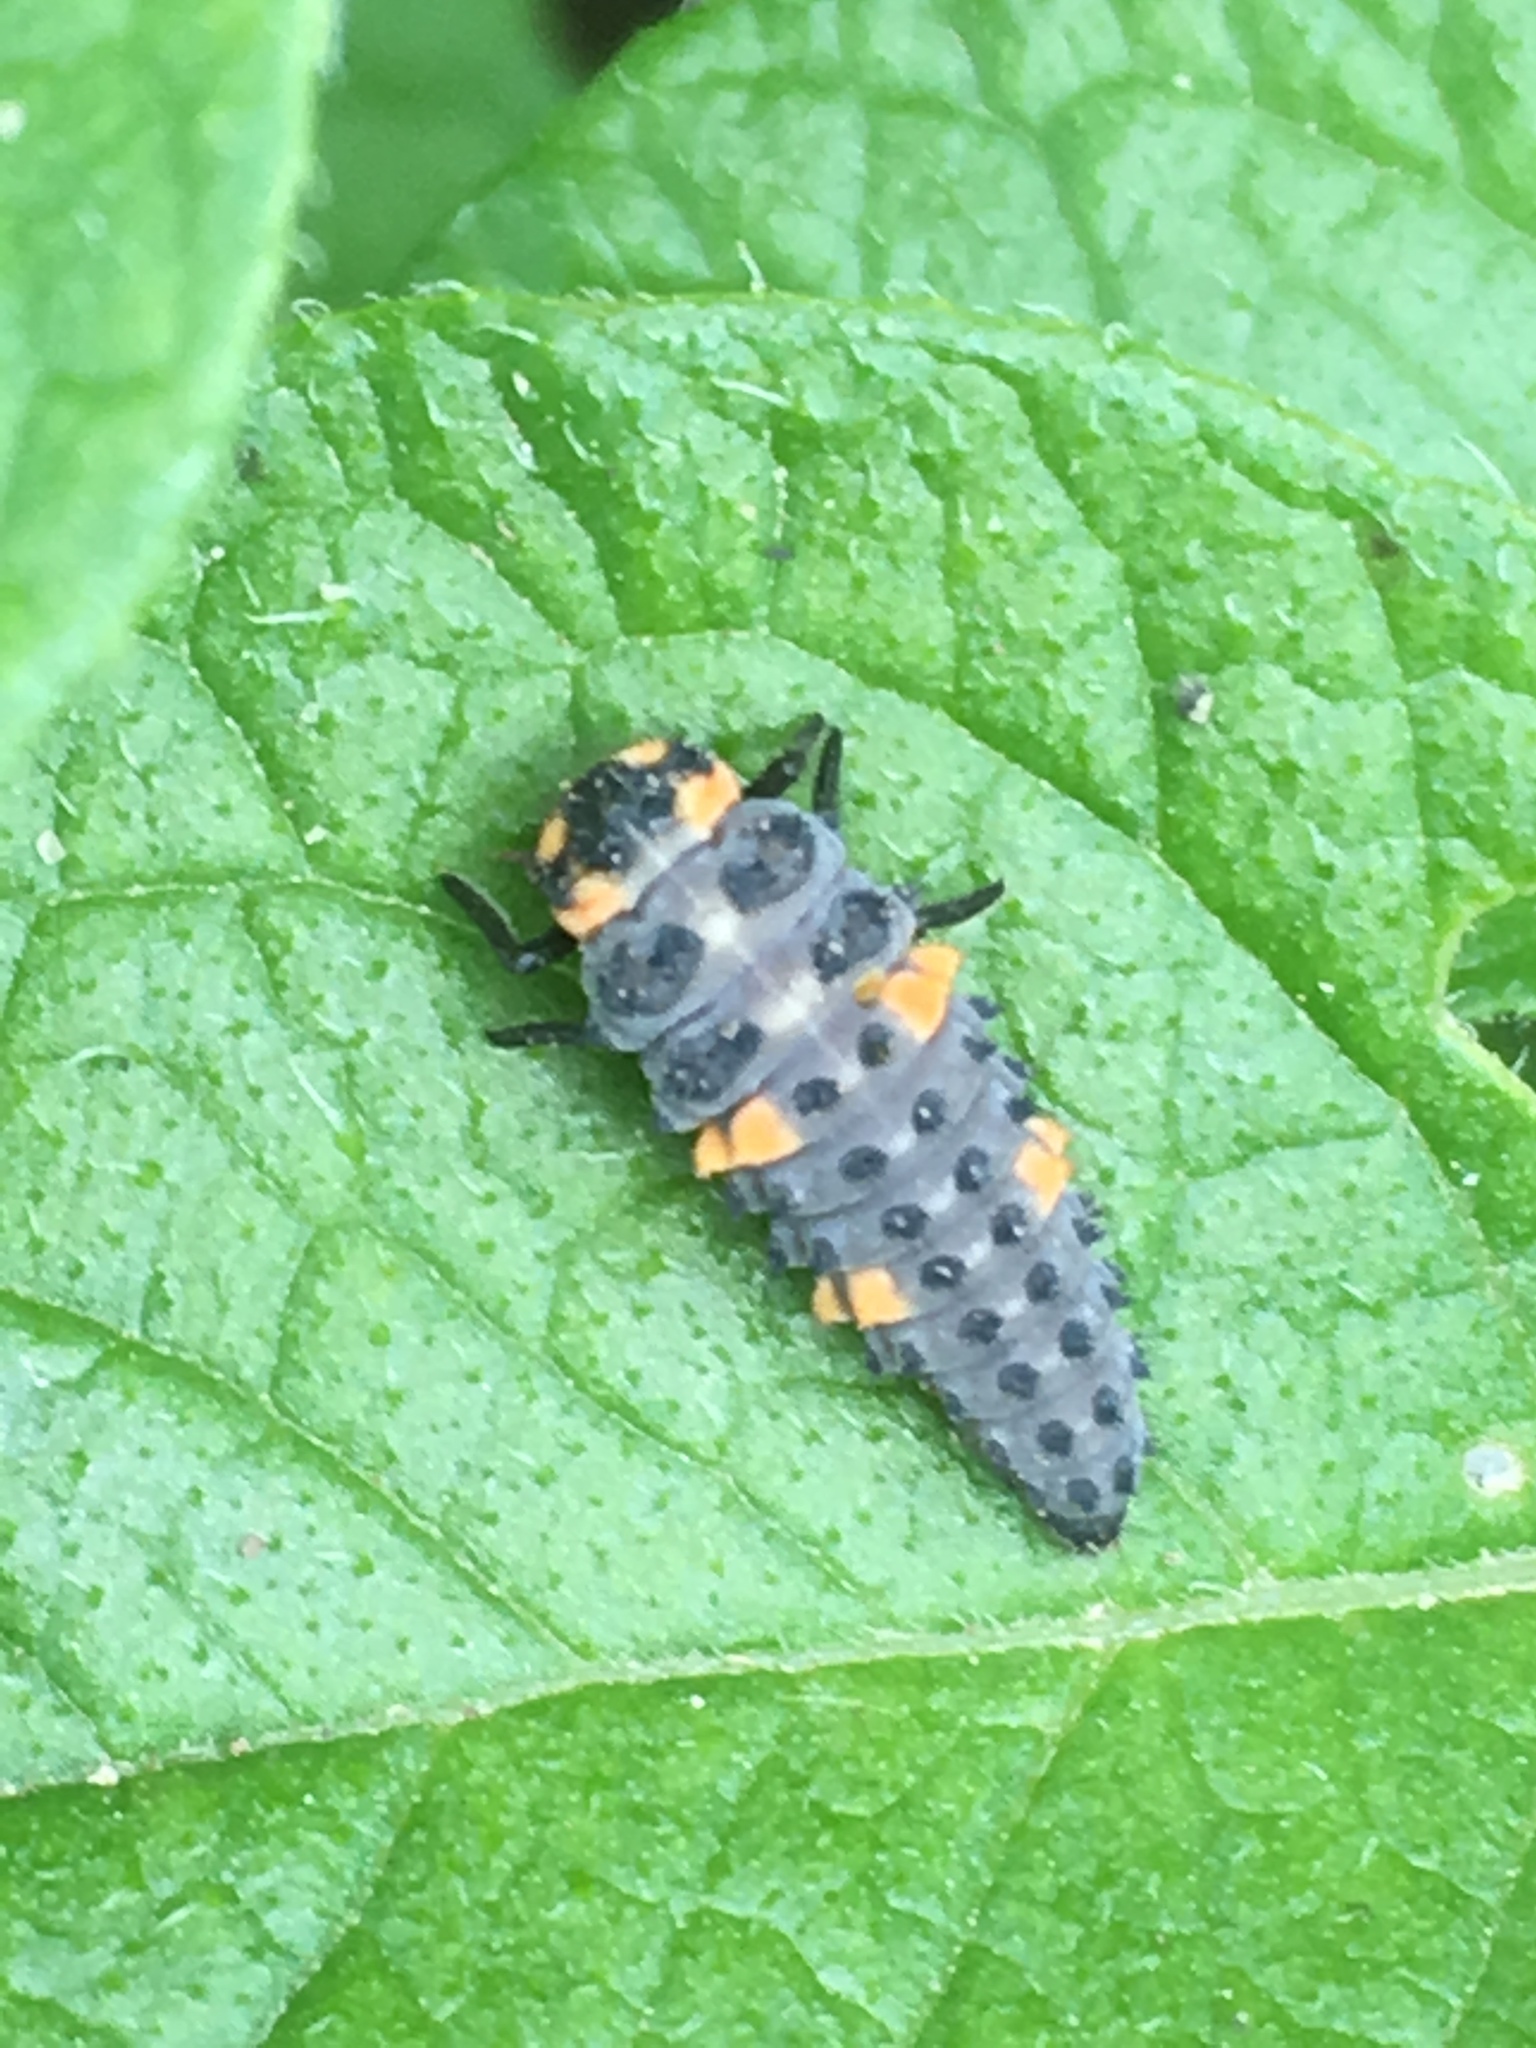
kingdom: Animalia
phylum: Arthropoda
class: Insecta
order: Coleoptera
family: Coccinellidae
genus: Coccinella
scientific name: Coccinella septempunctata
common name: Sevenspotted lady beetle
